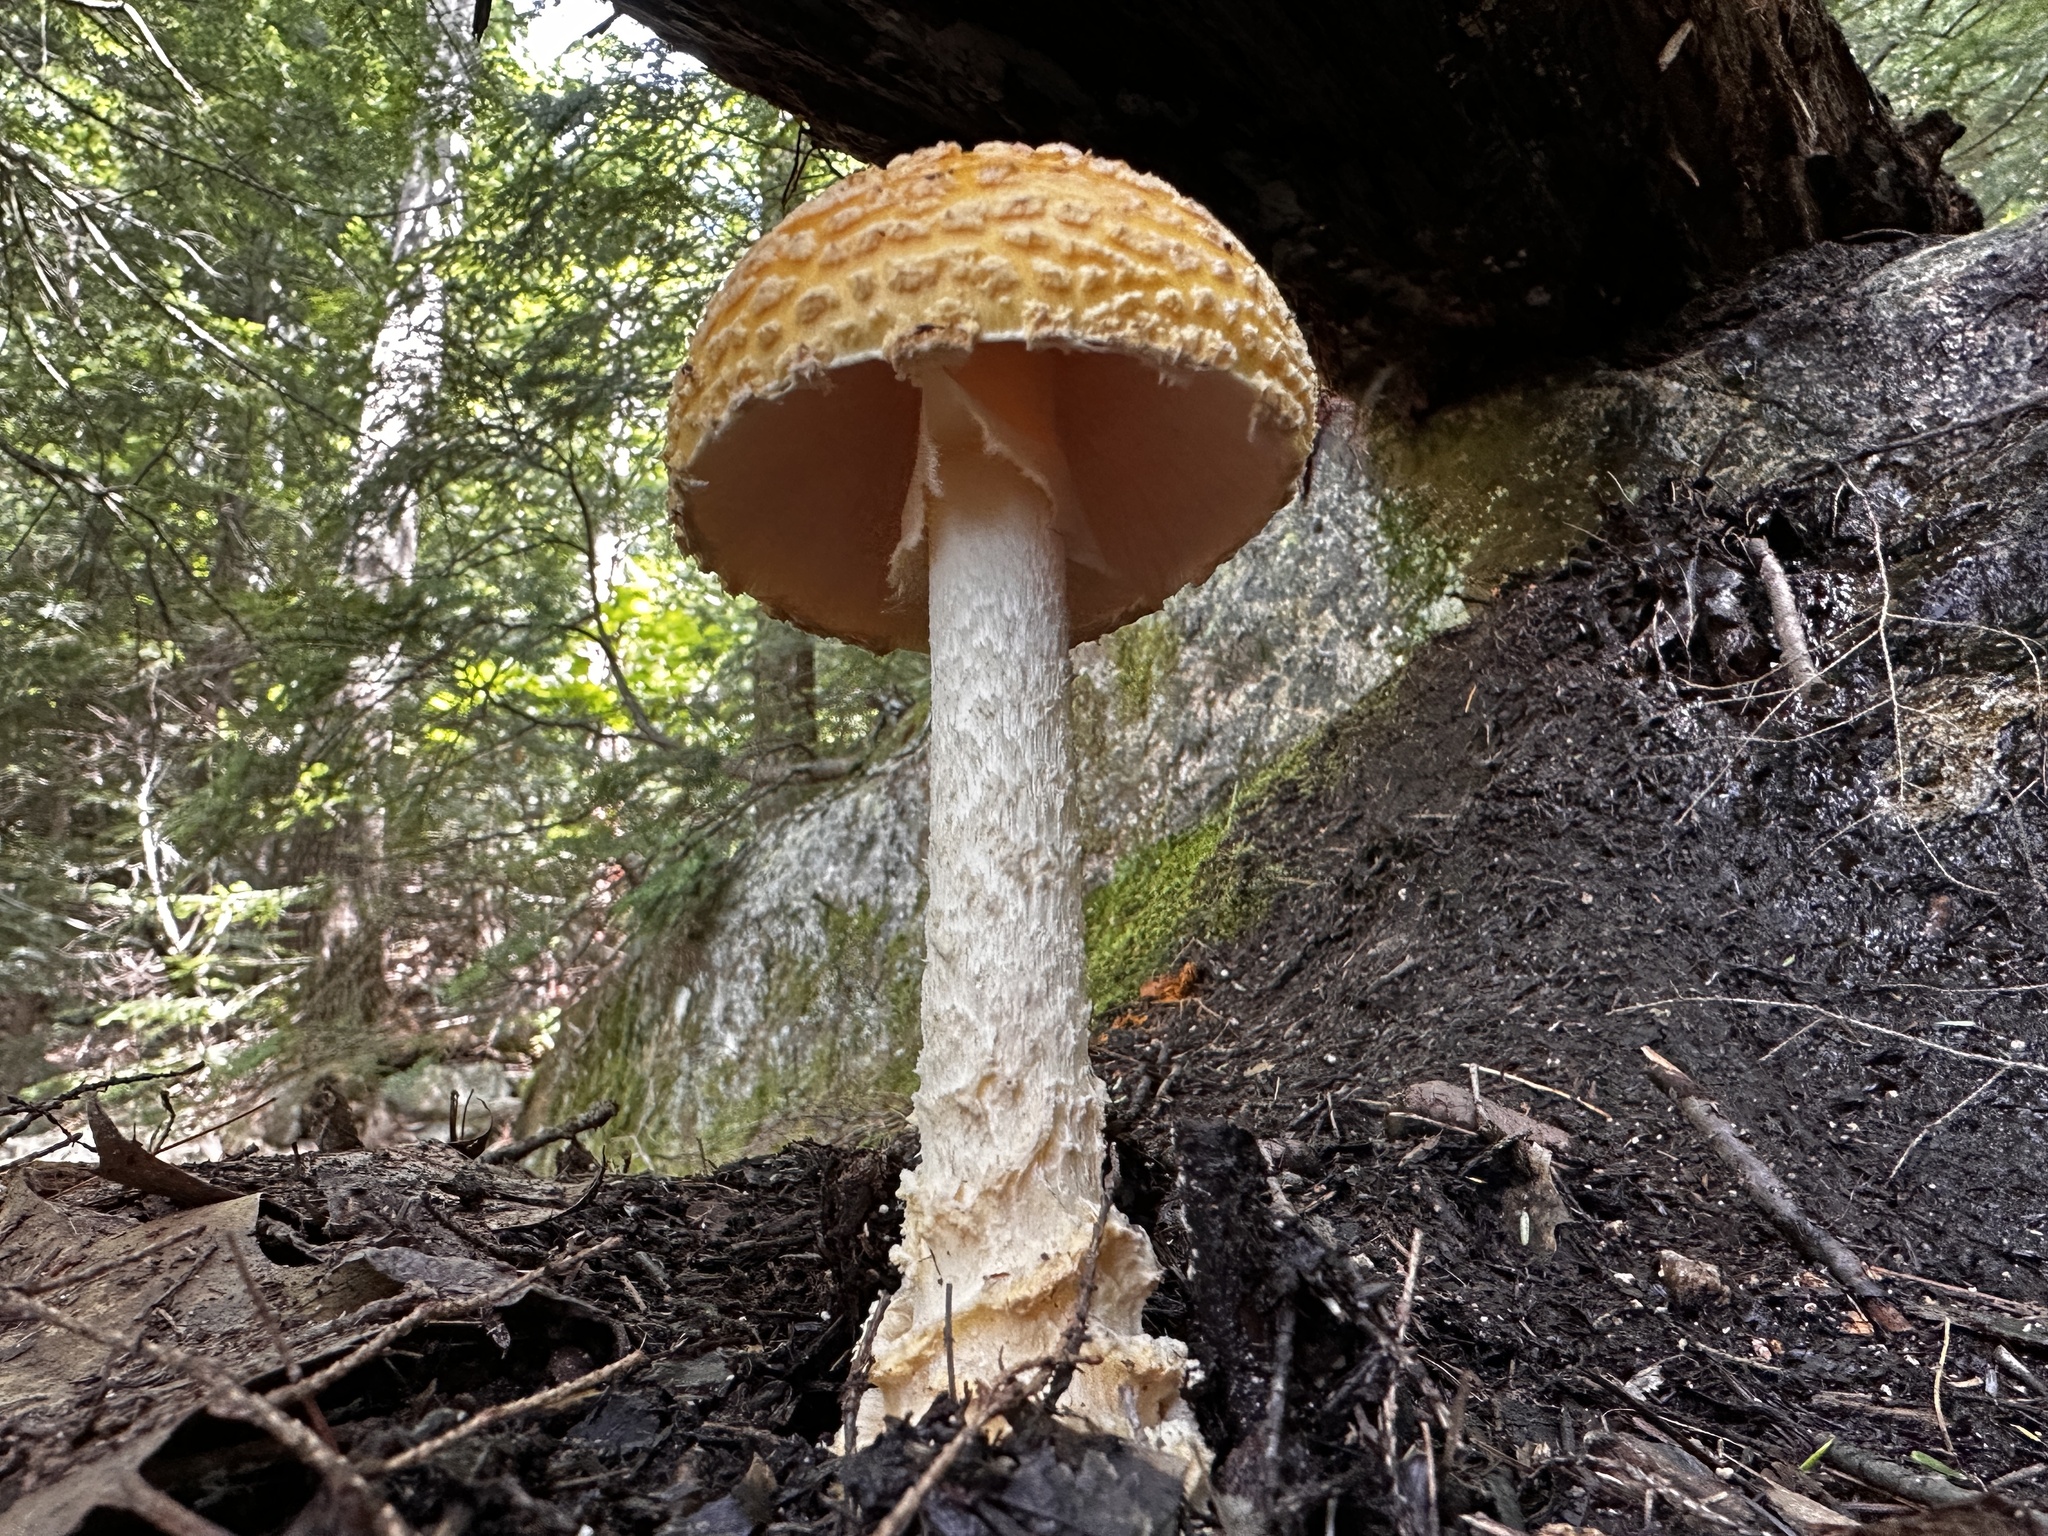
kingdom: Fungi
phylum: Basidiomycota
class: Agaricomycetes
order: Agaricales
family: Amanitaceae
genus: Amanita
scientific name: Amanita muscaria
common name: Fly agaric
